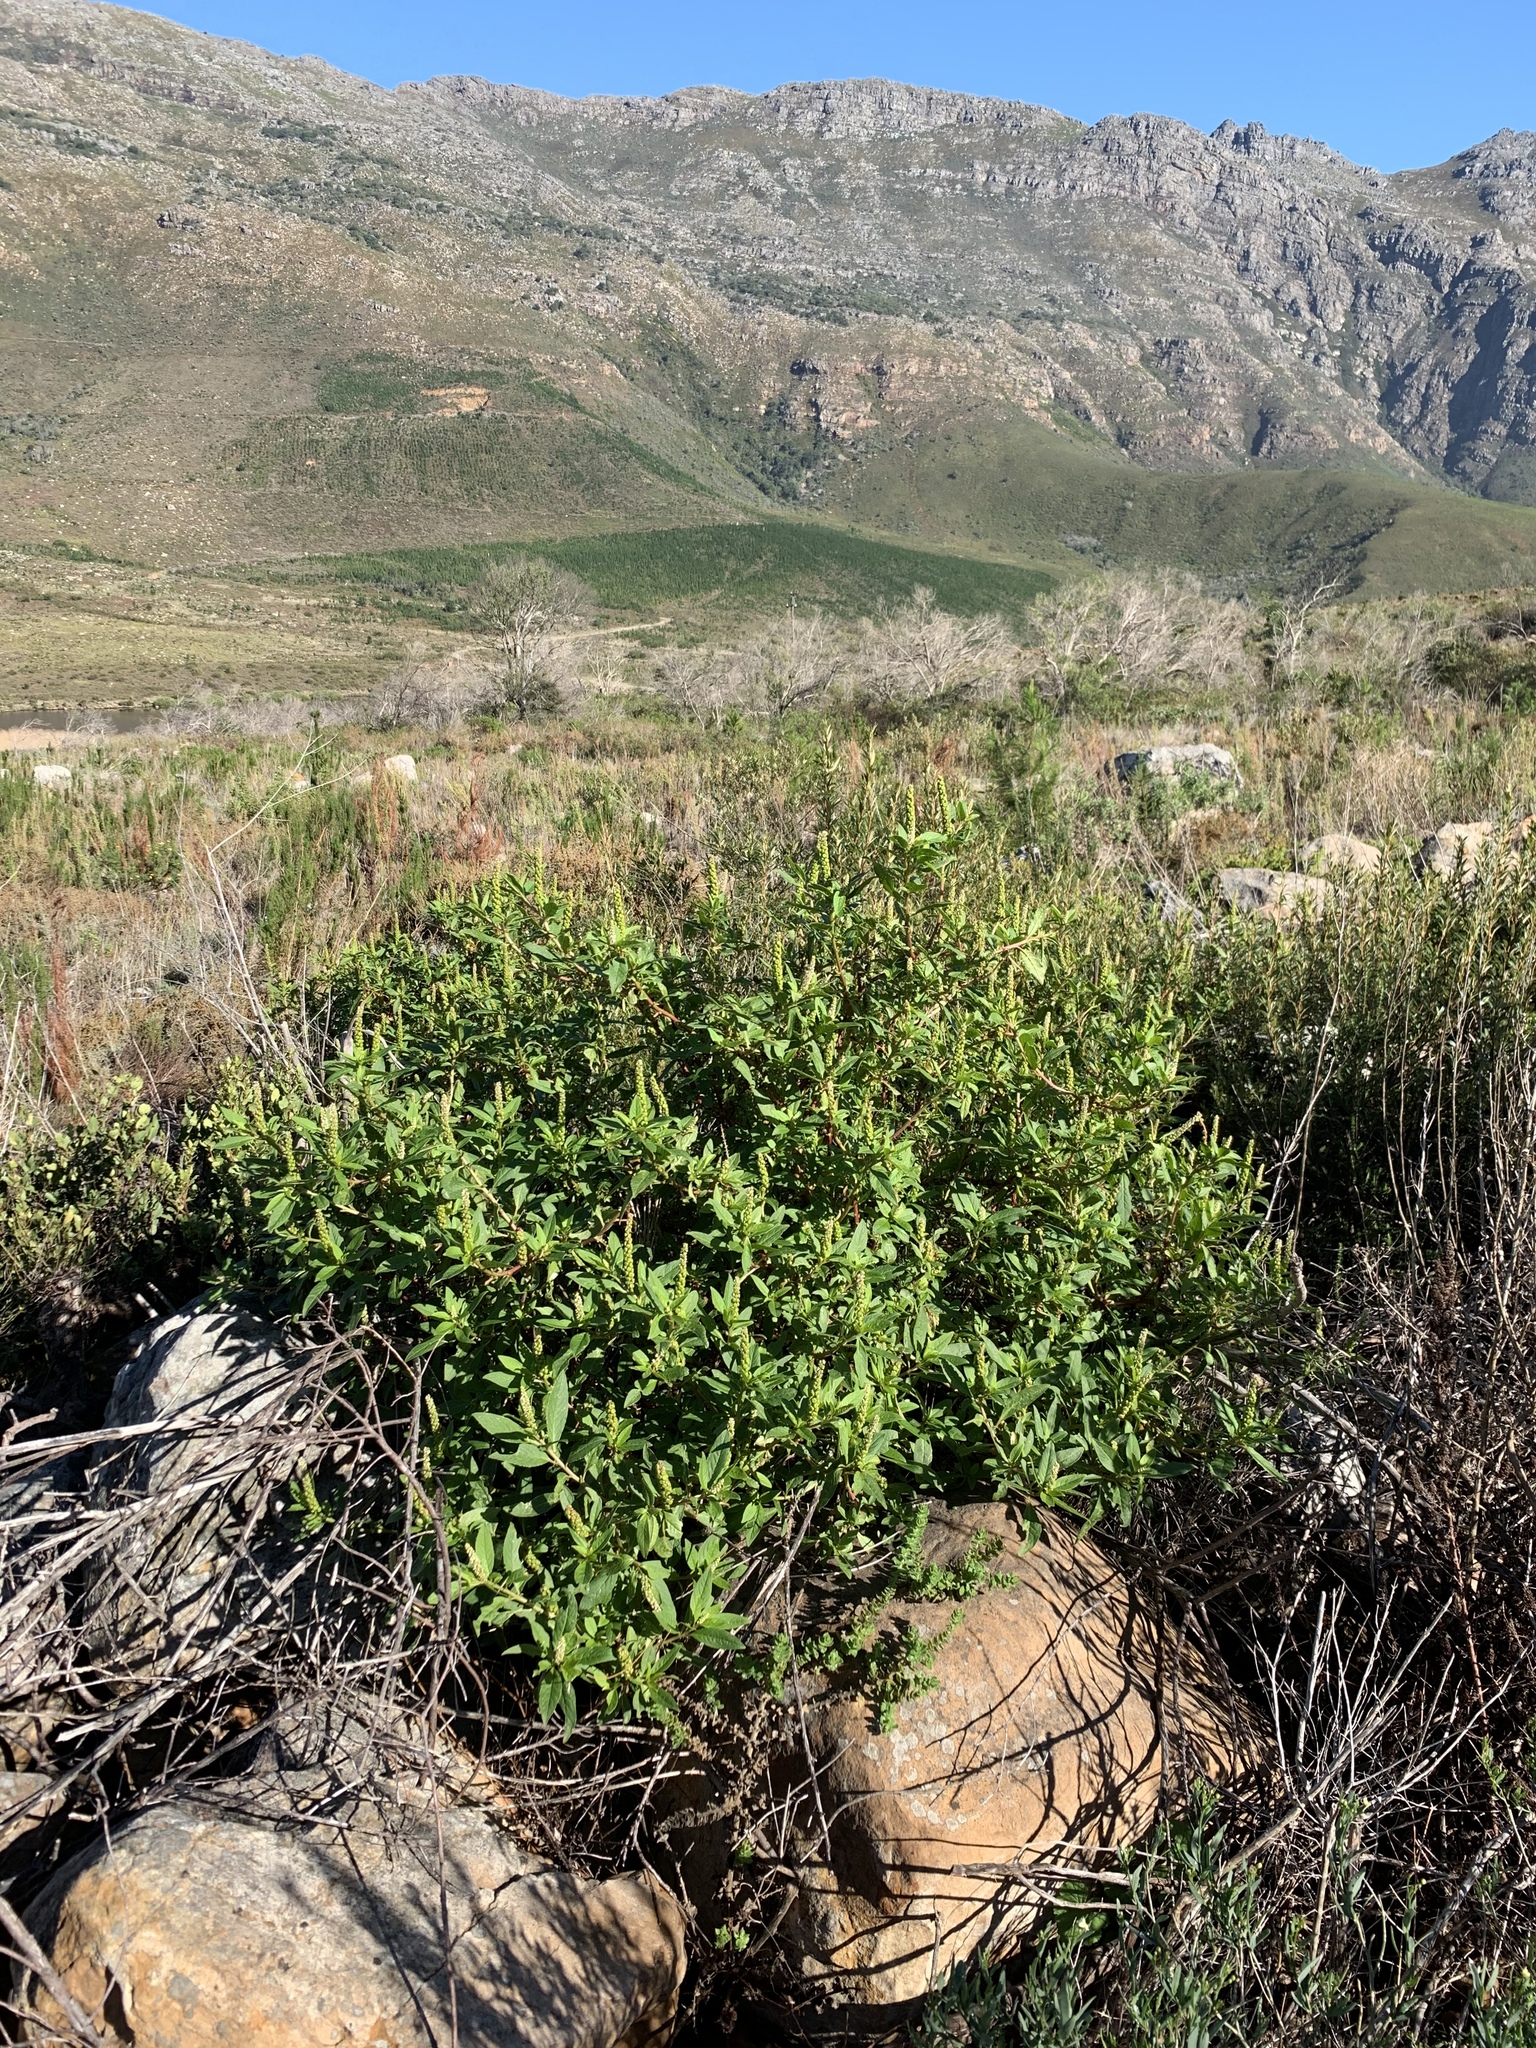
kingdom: Plantae
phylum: Tracheophyta
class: Magnoliopsida
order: Caryophyllales
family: Phytolaccaceae
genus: Phytolacca
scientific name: Phytolacca icosandra
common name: Button pokeweed
